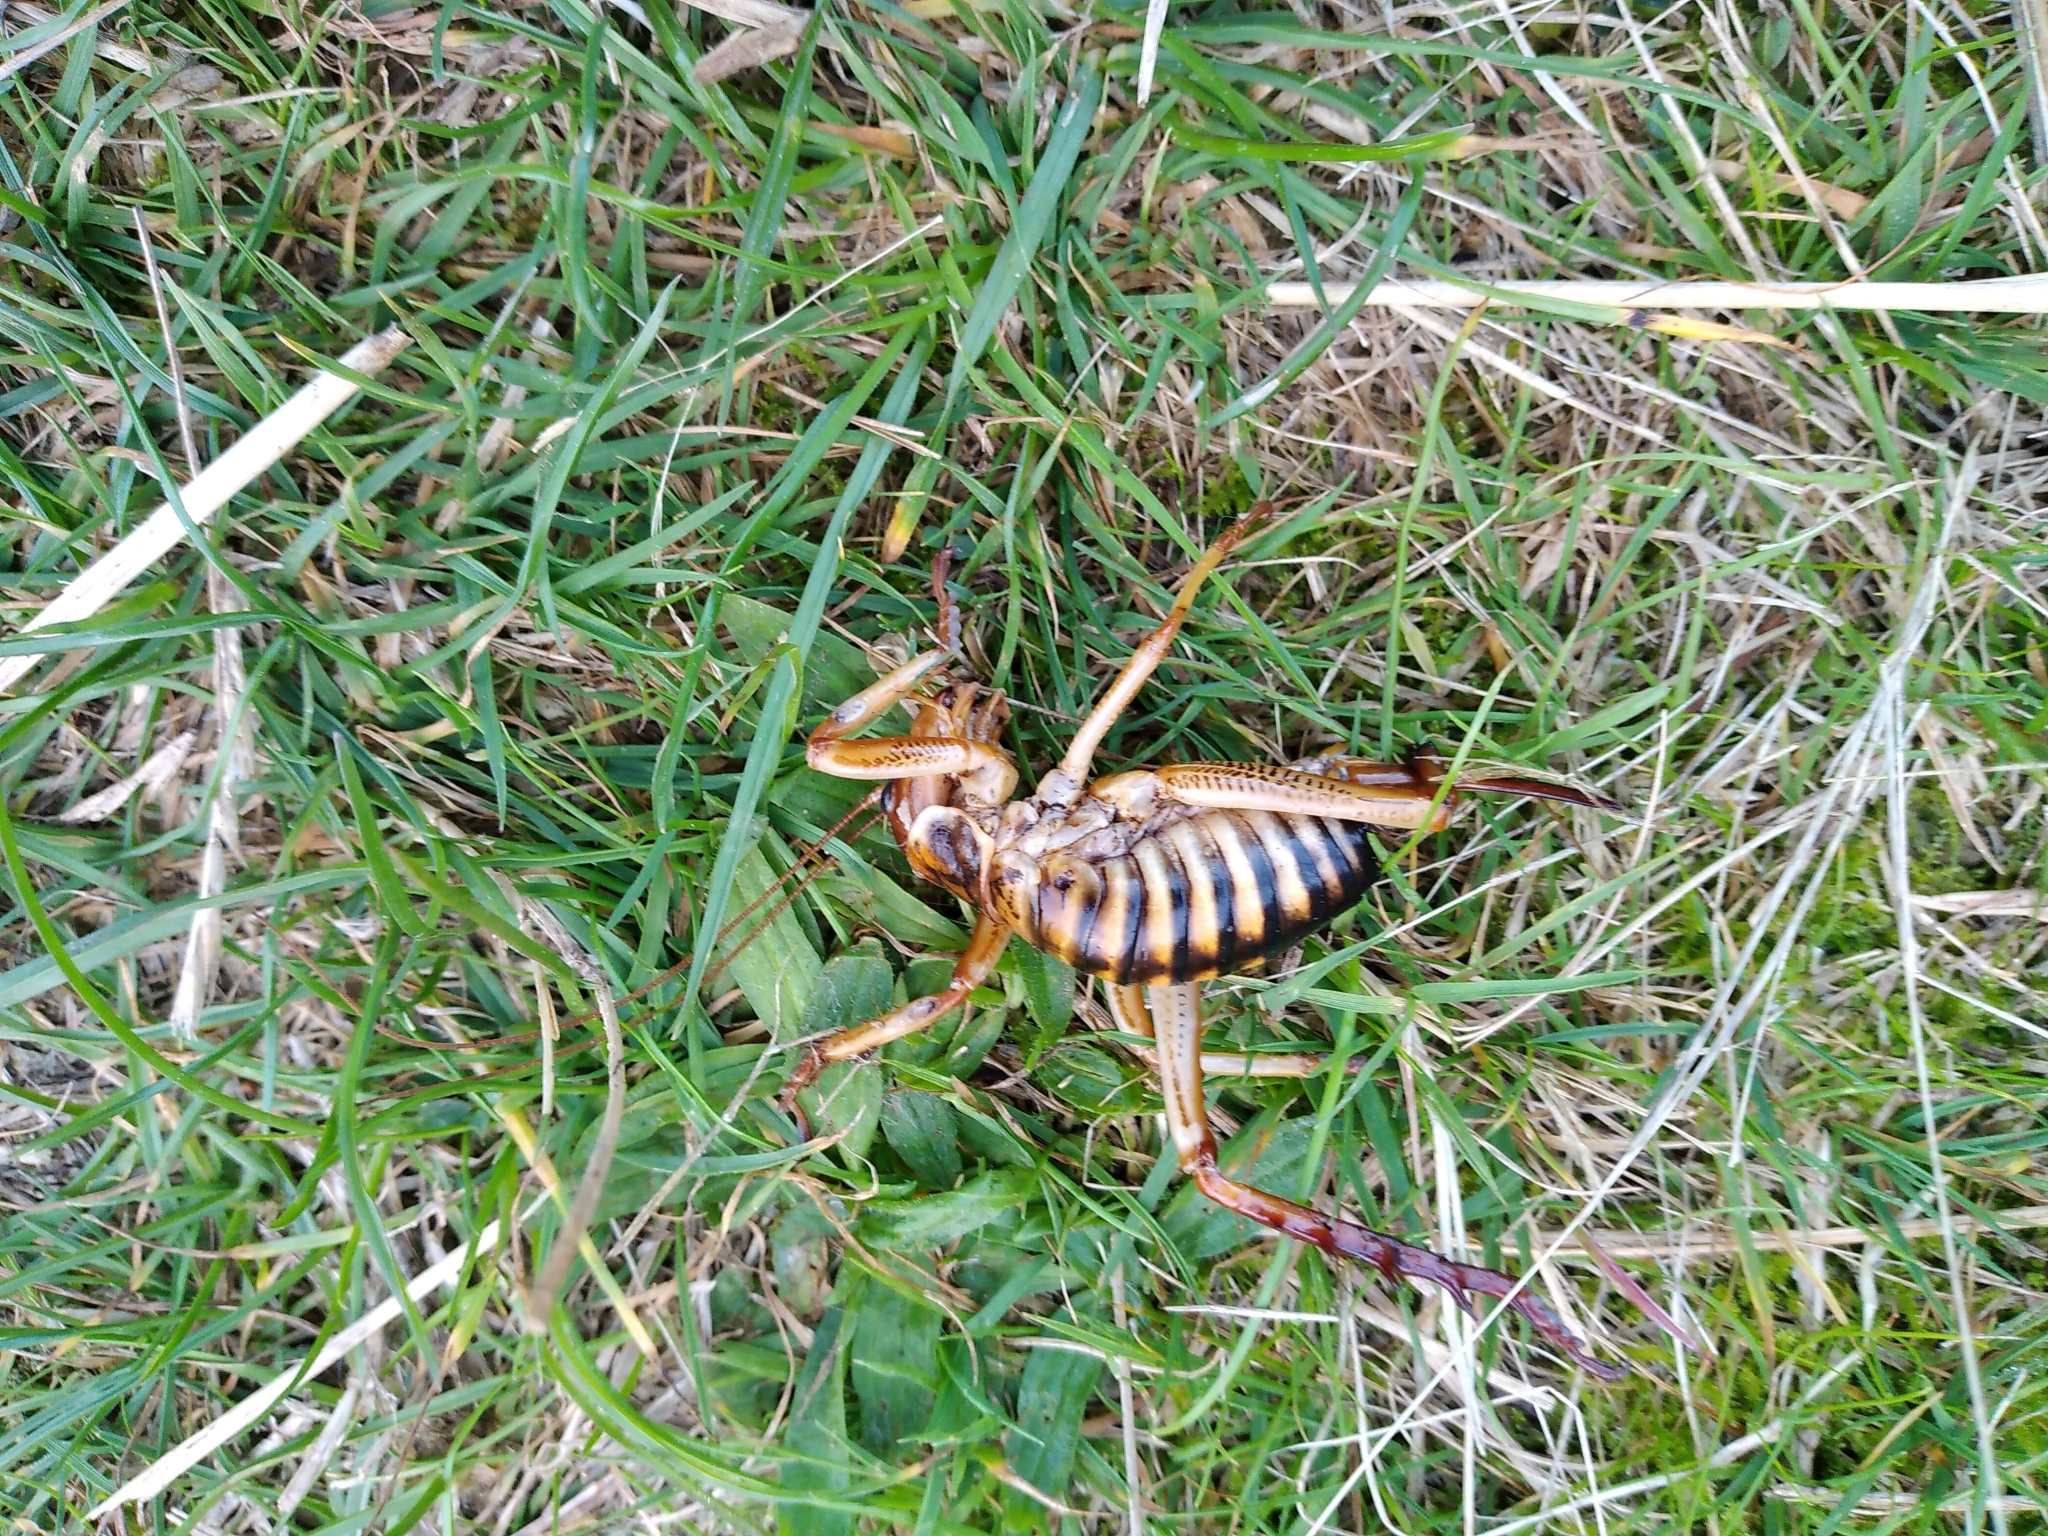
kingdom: Animalia
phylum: Arthropoda
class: Insecta
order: Orthoptera
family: Anostostomatidae
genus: Hemideina
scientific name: Hemideina crassidens
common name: Wellington tree weta
